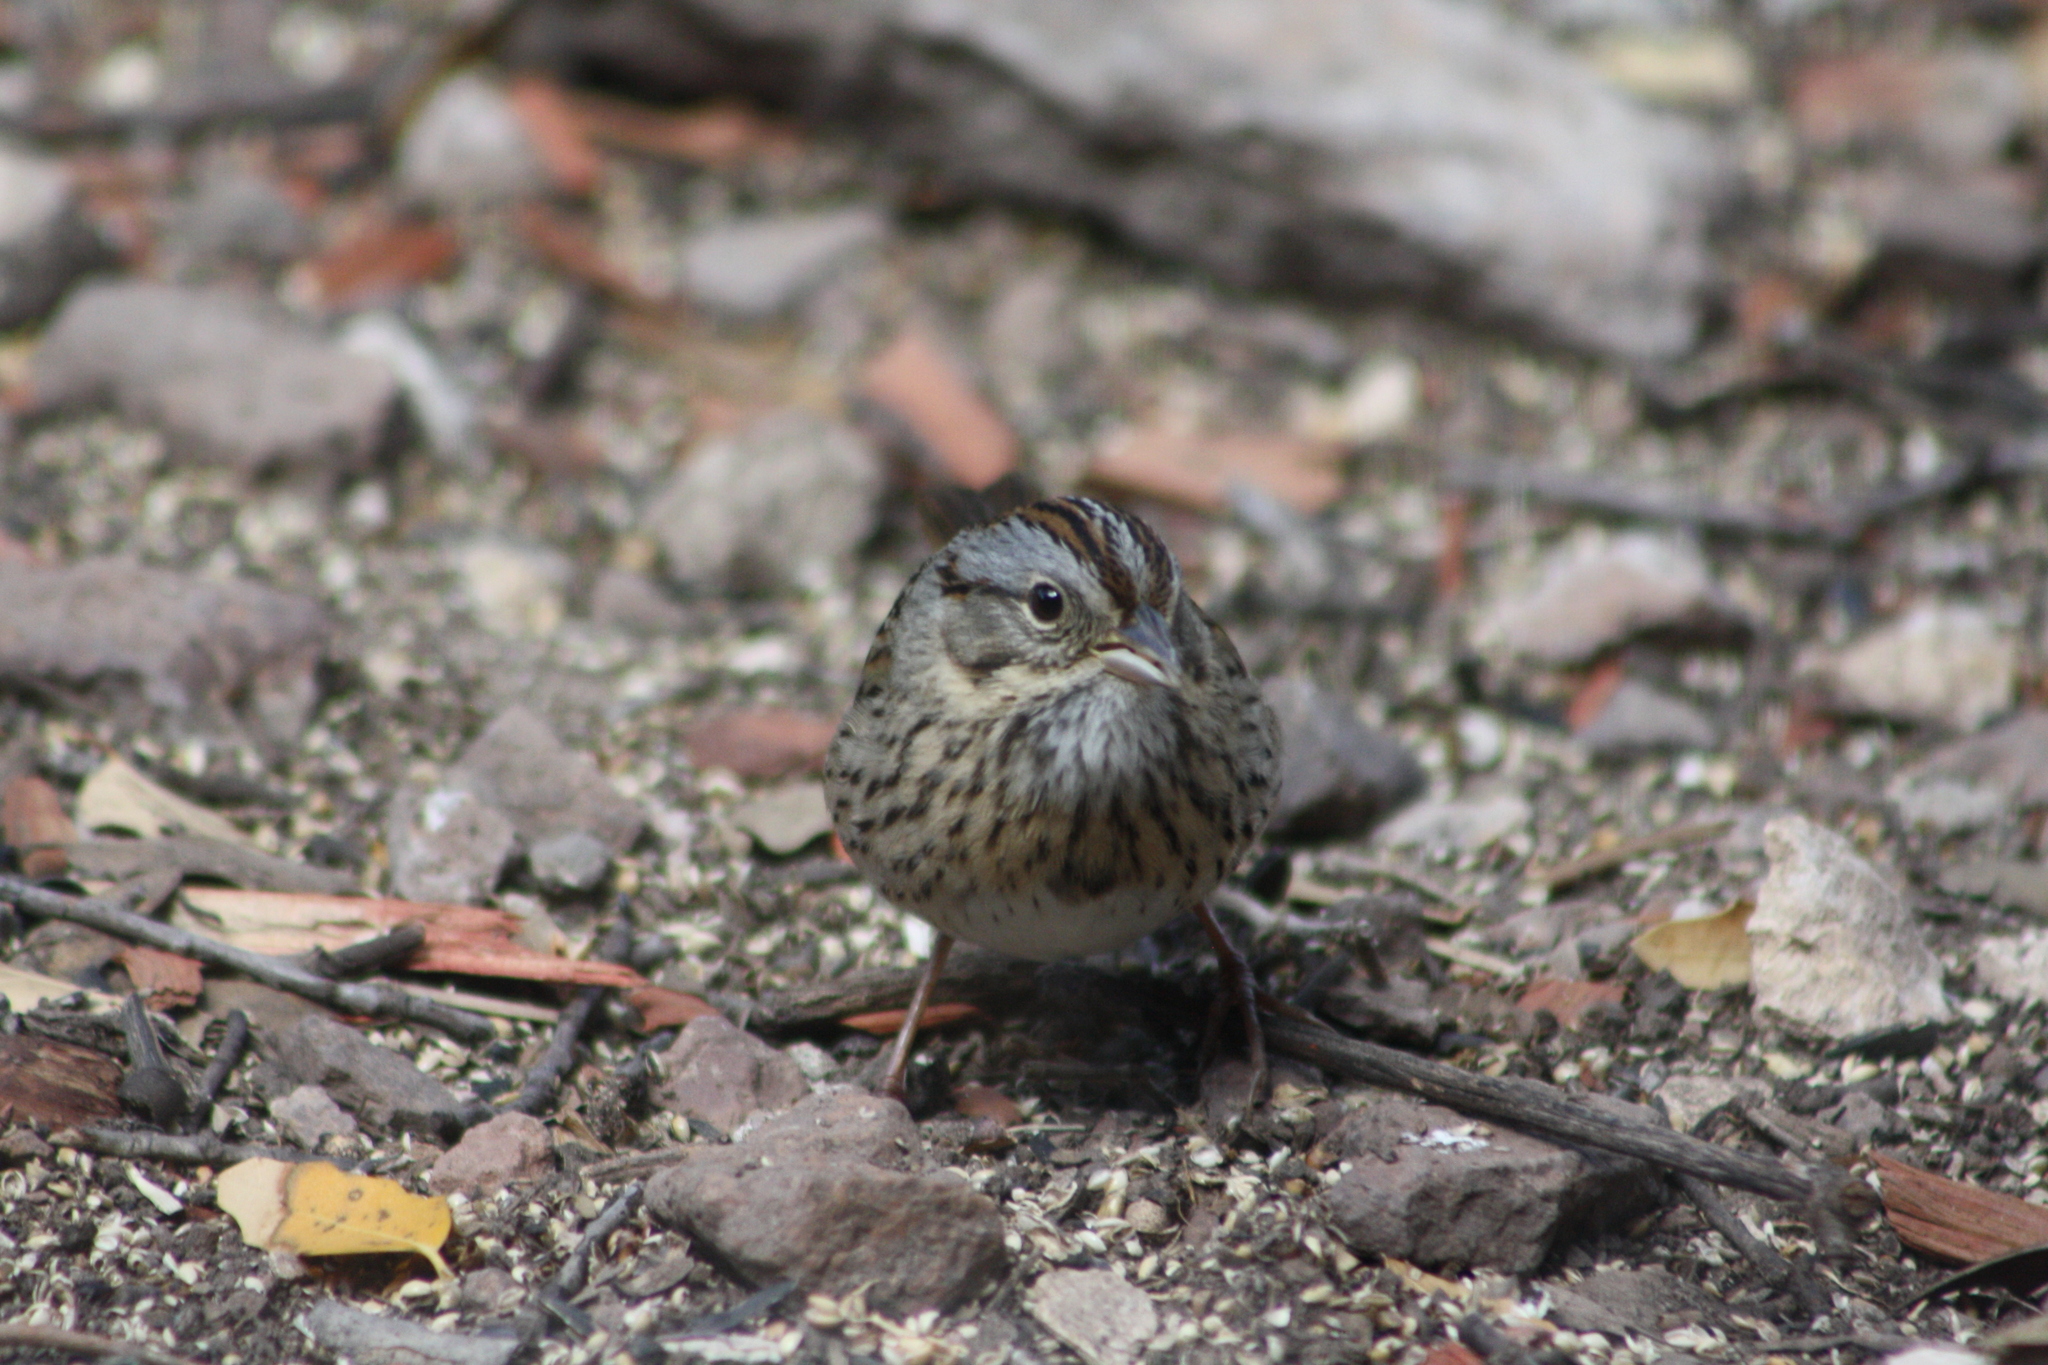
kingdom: Animalia
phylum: Chordata
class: Aves
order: Passeriformes
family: Passerellidae
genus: Melospiza
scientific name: Melospiza lincolnii
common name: Lincoln's sparrow
